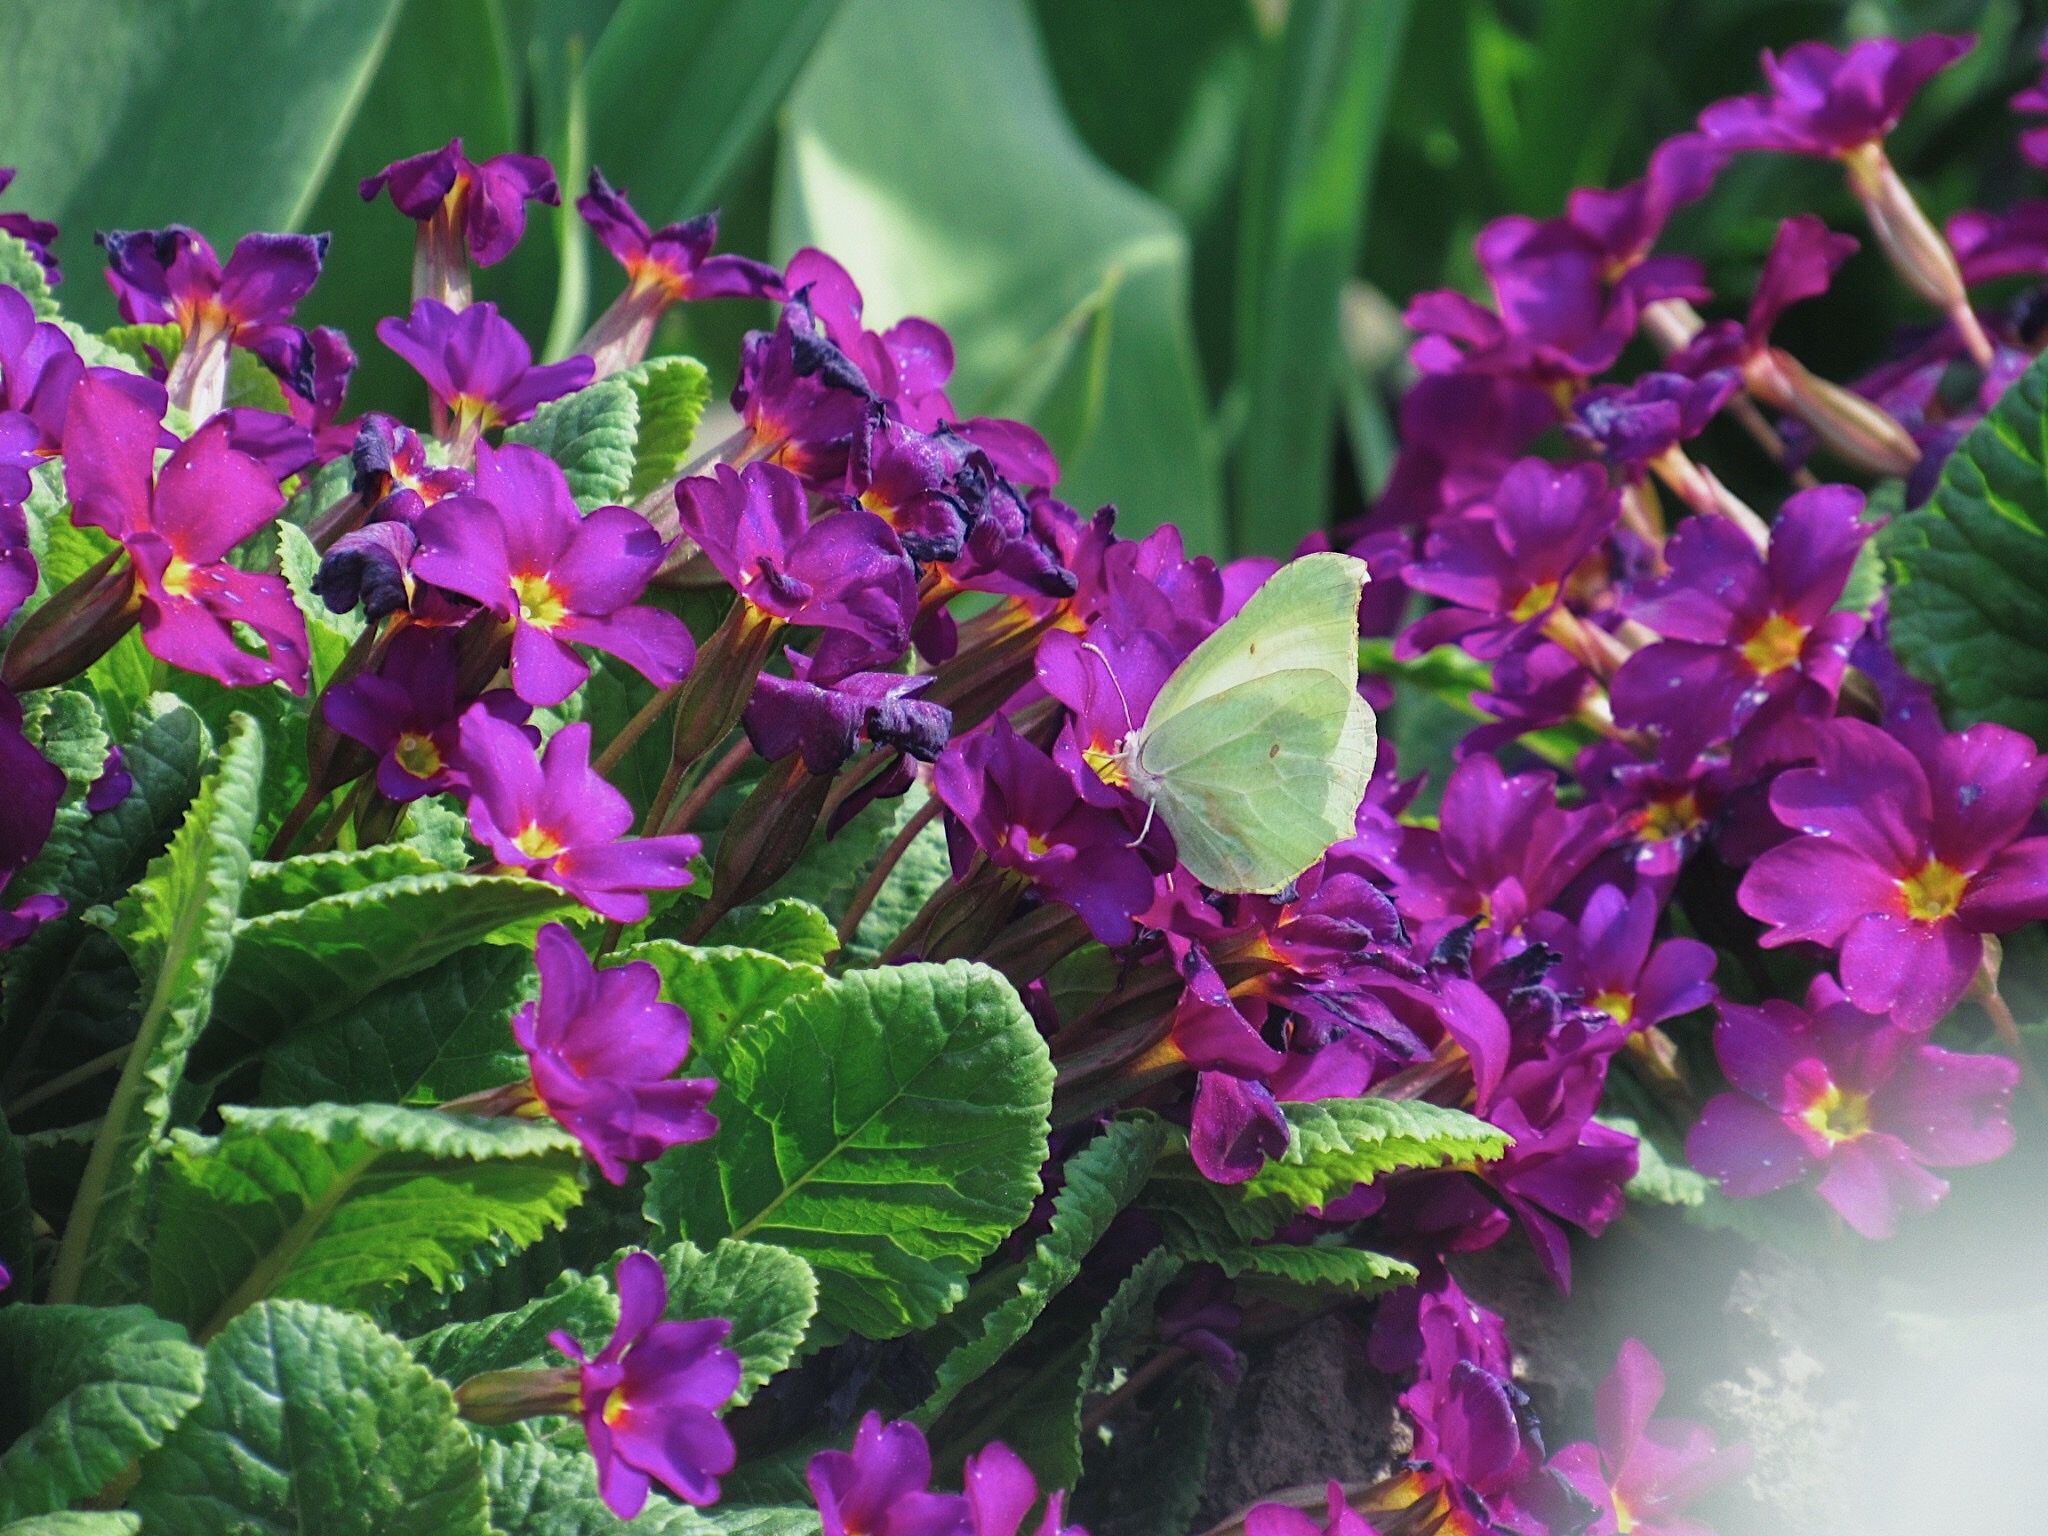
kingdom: Animalia
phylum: Arthropoda
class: Insecta
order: Lepidoptera
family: Pieridae
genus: Gonepteryx
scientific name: Gonepteryx rhamni
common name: Brimstone
